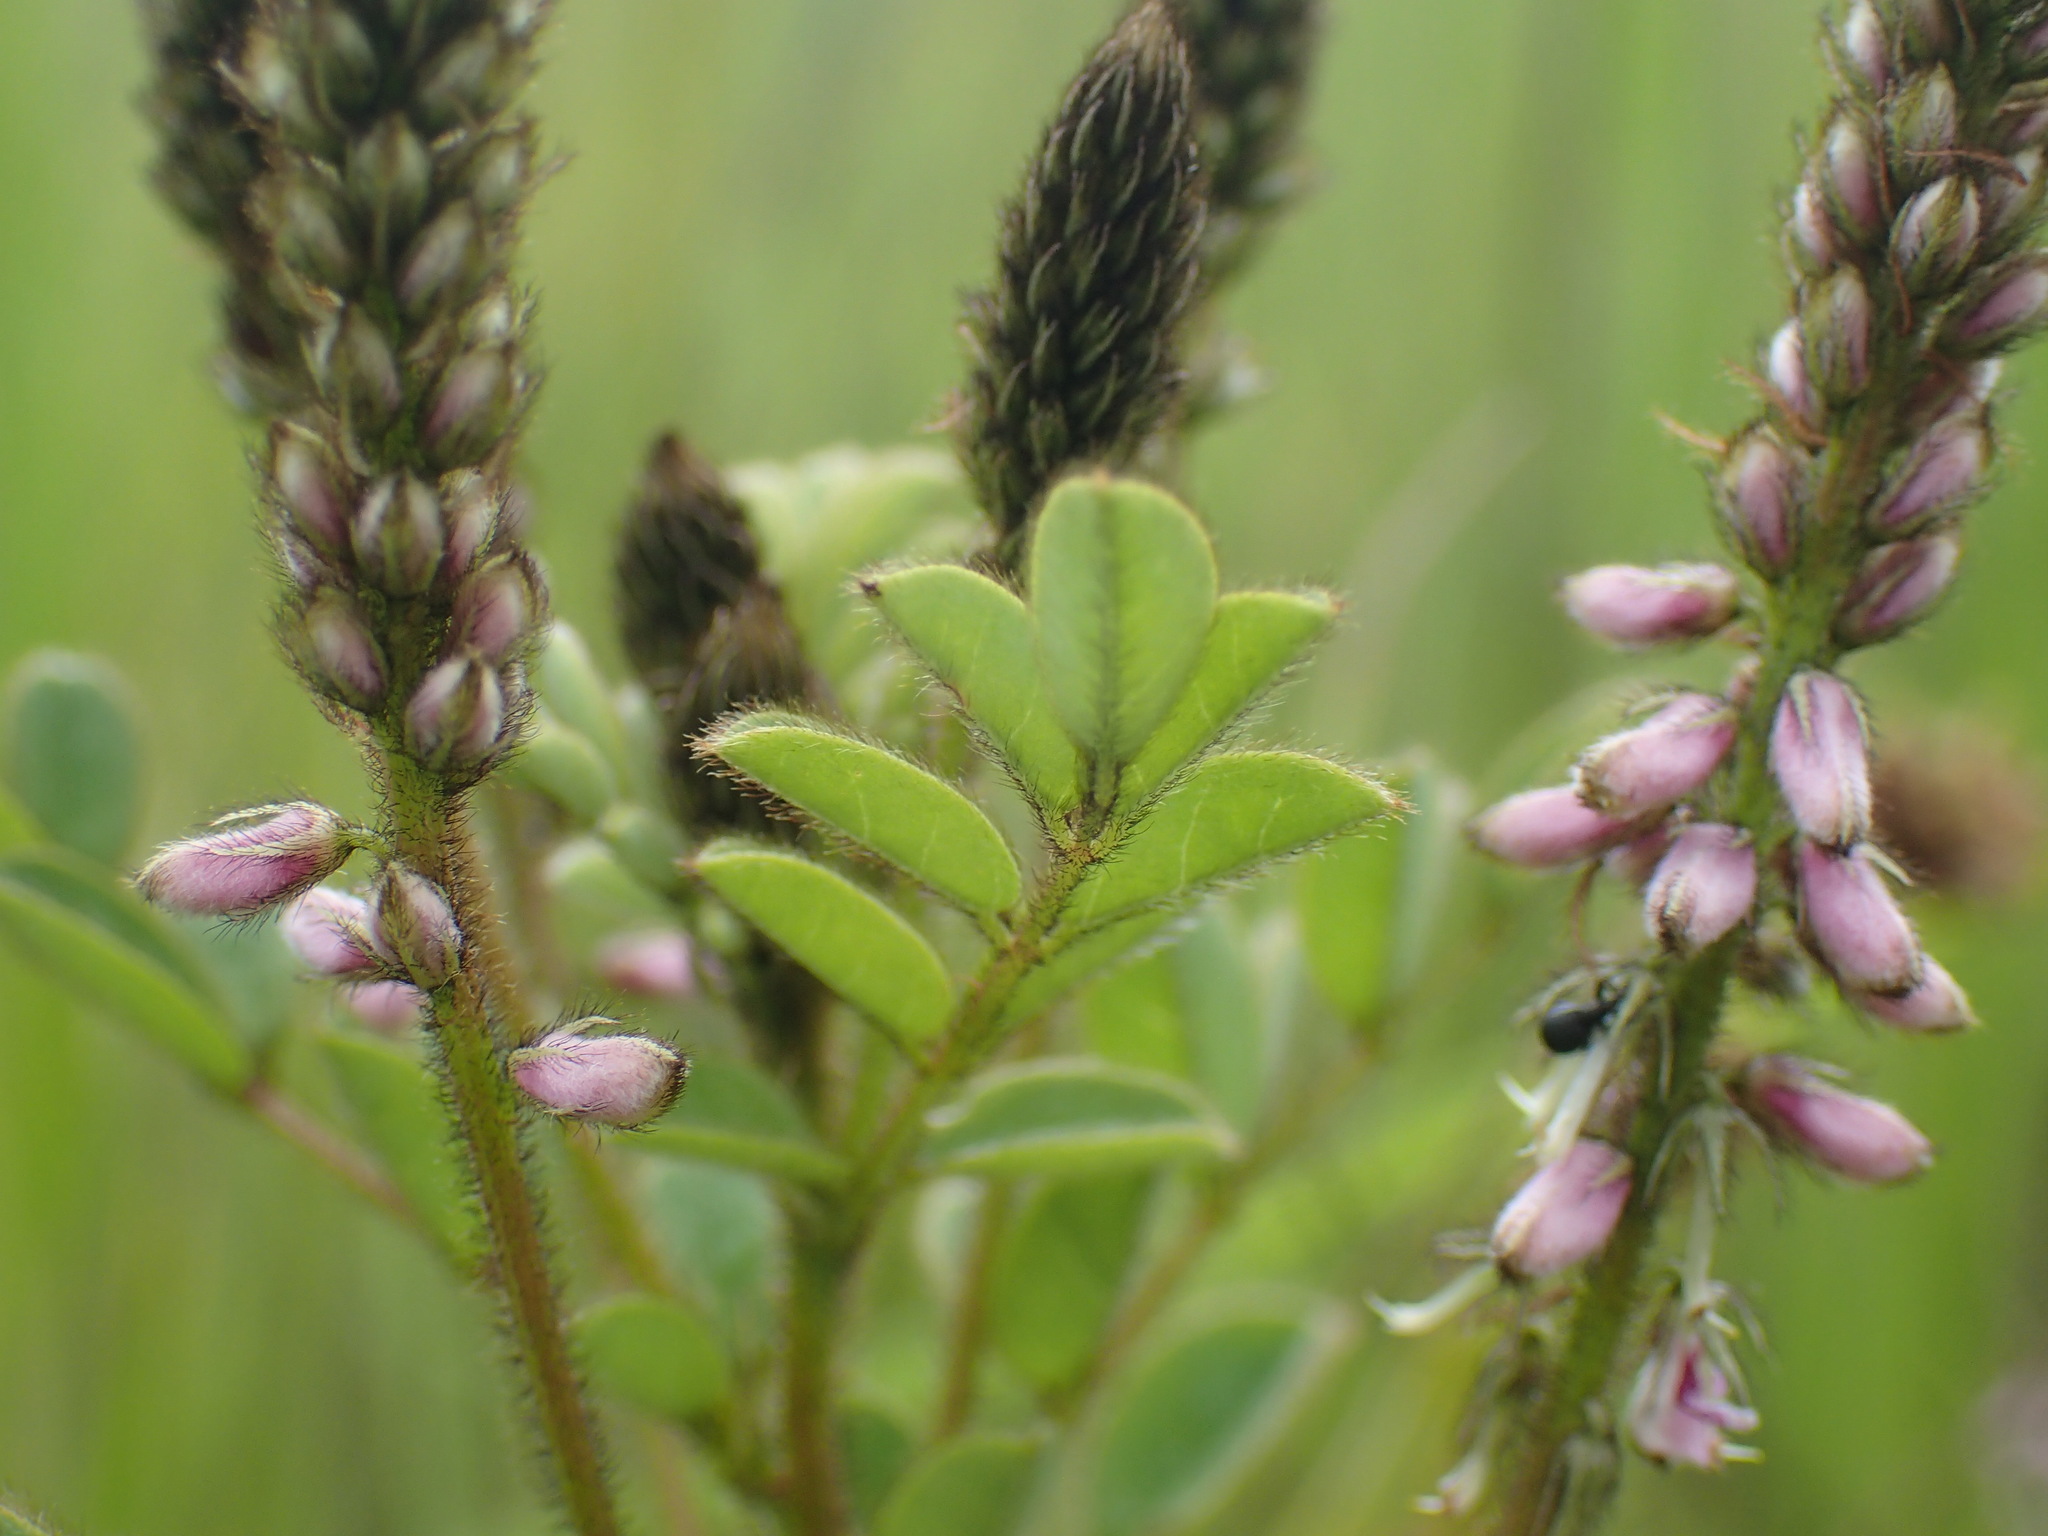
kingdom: Plantae
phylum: Tracheophyta
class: Magnoliopsida
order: Fabales
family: Fabaceae
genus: Indigofera
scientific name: Indigofera longibarbata
